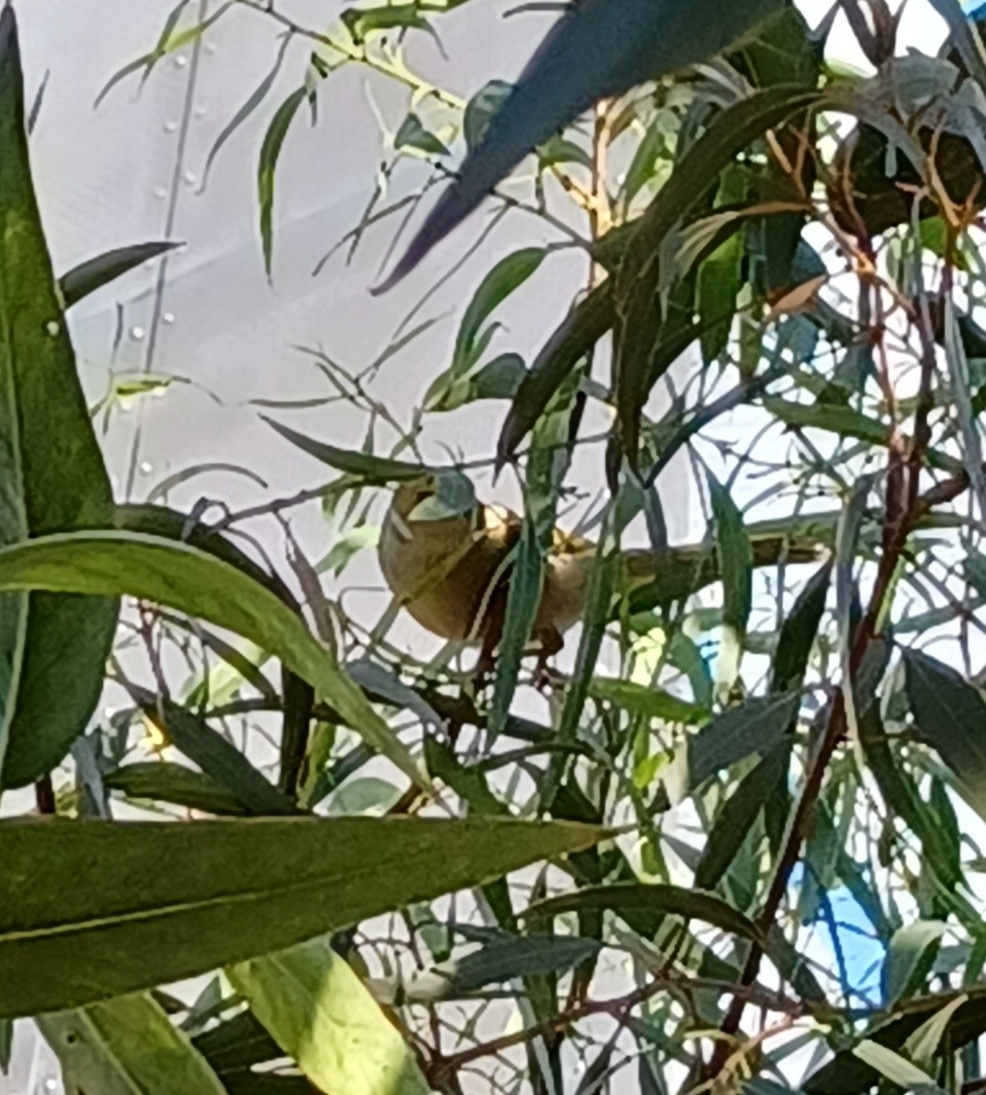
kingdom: Animalia
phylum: Chordata
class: Aves
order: Passeriformes
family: Meliphagidae
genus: Ptilotula
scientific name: Ptilotula penicillata
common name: White-plumed honeyeater
